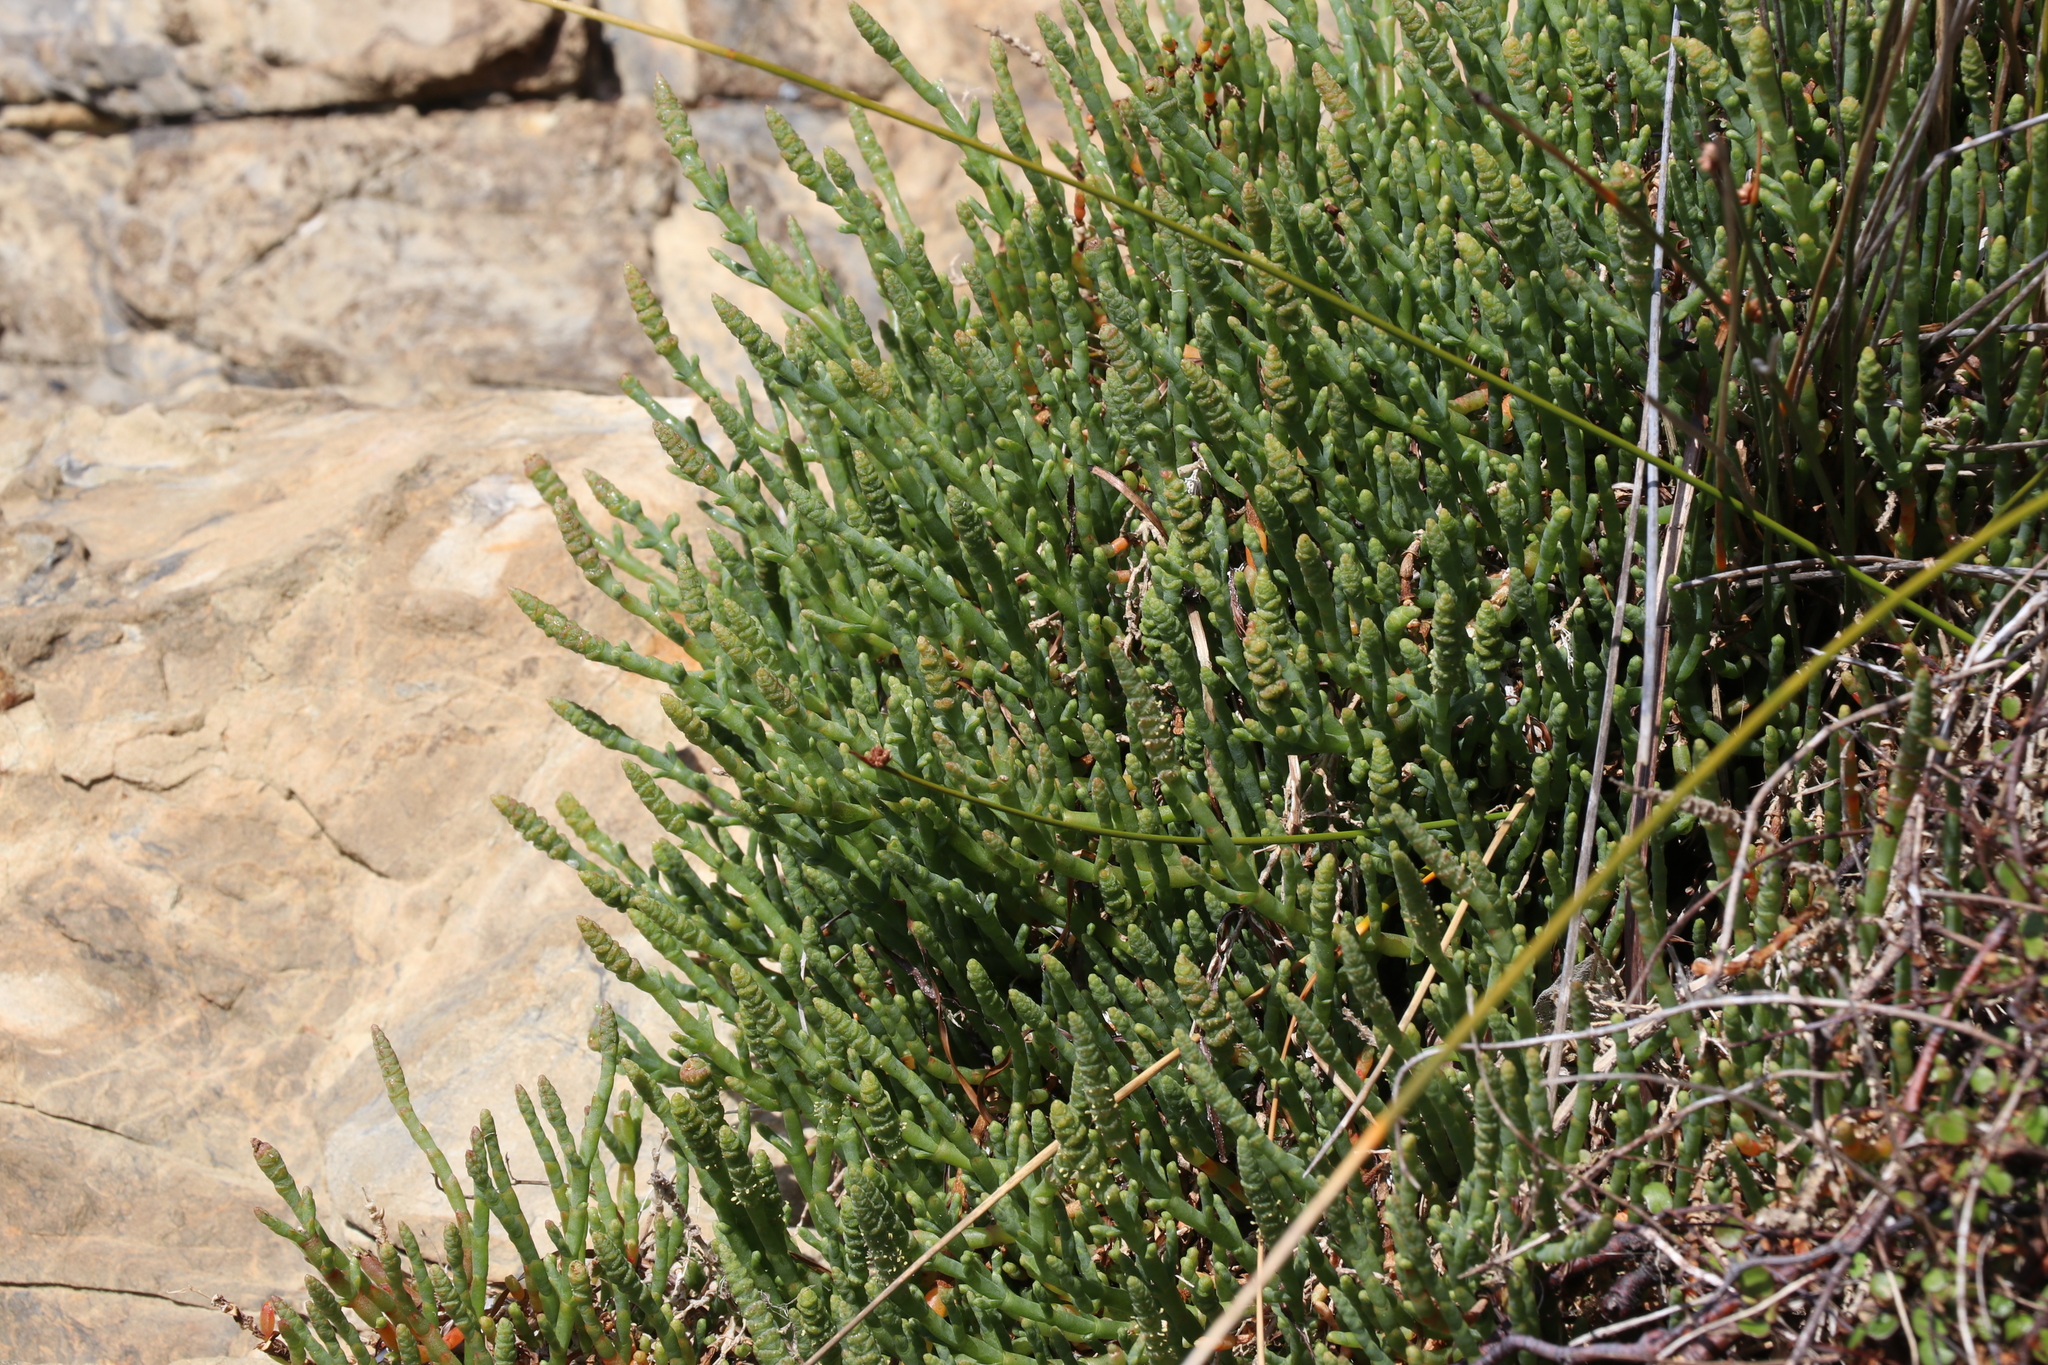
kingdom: Plantae
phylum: Tracheophyta
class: Magnoliopsida
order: Caryophyllales
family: Amaranthaceae
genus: Salicornia
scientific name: Salicornia quinqueflora
